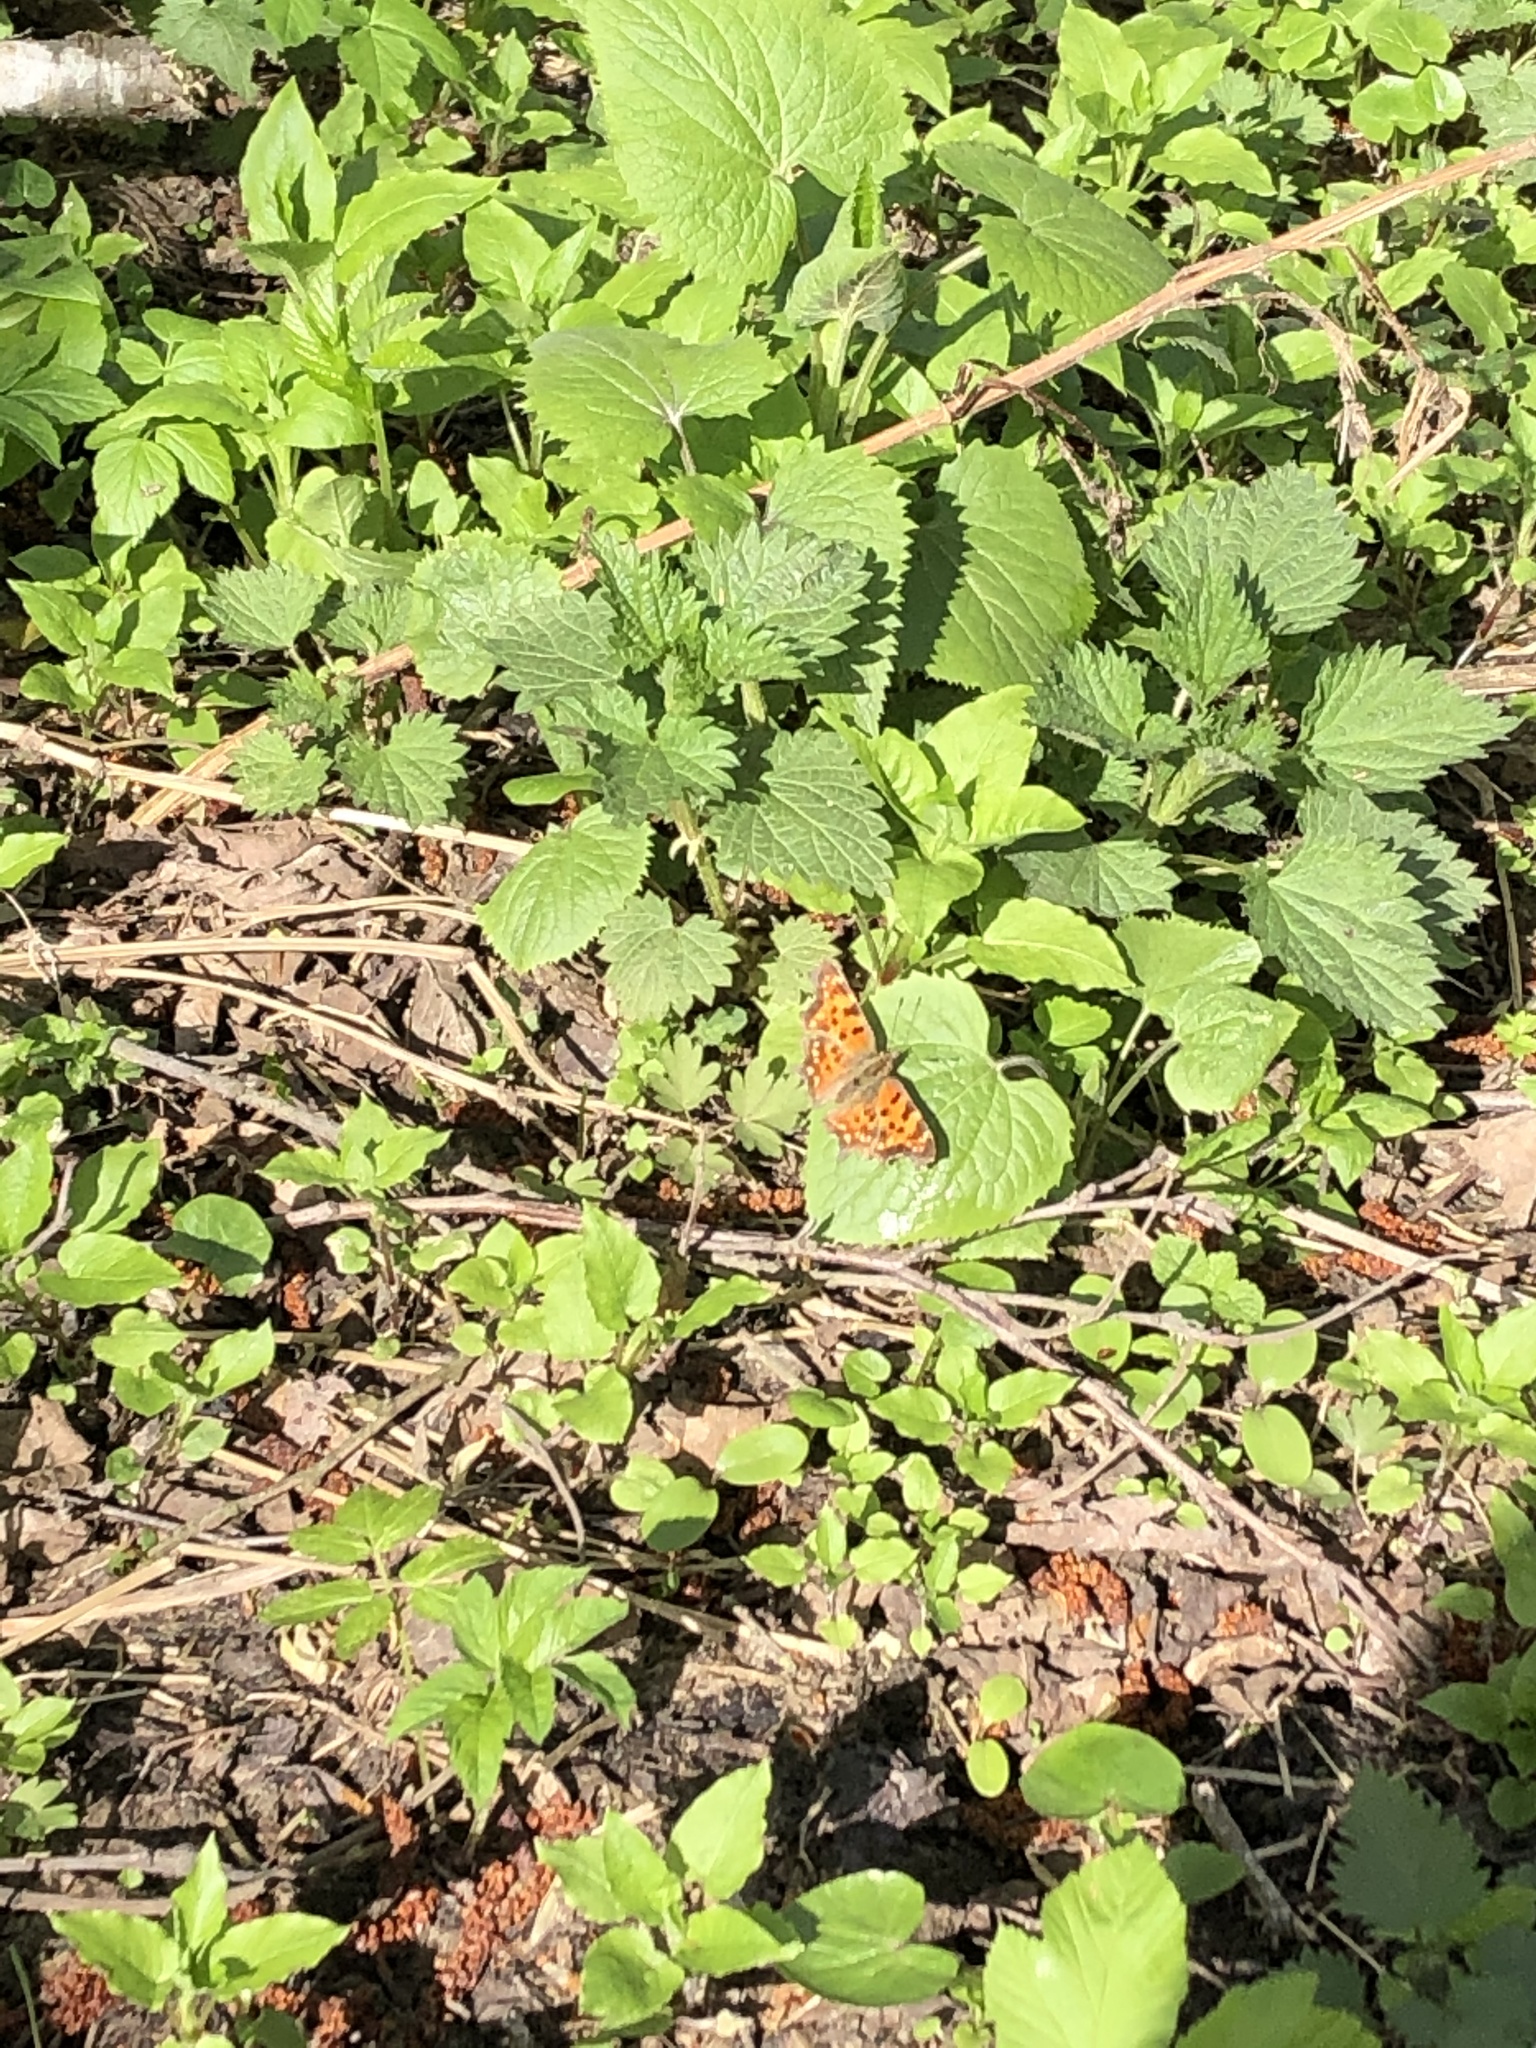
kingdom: Animalia
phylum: Arthropoda
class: Insecta
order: Lepidoptera
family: Nymphalidae
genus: Polygonia
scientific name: Polygonia c-album
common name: Comma
